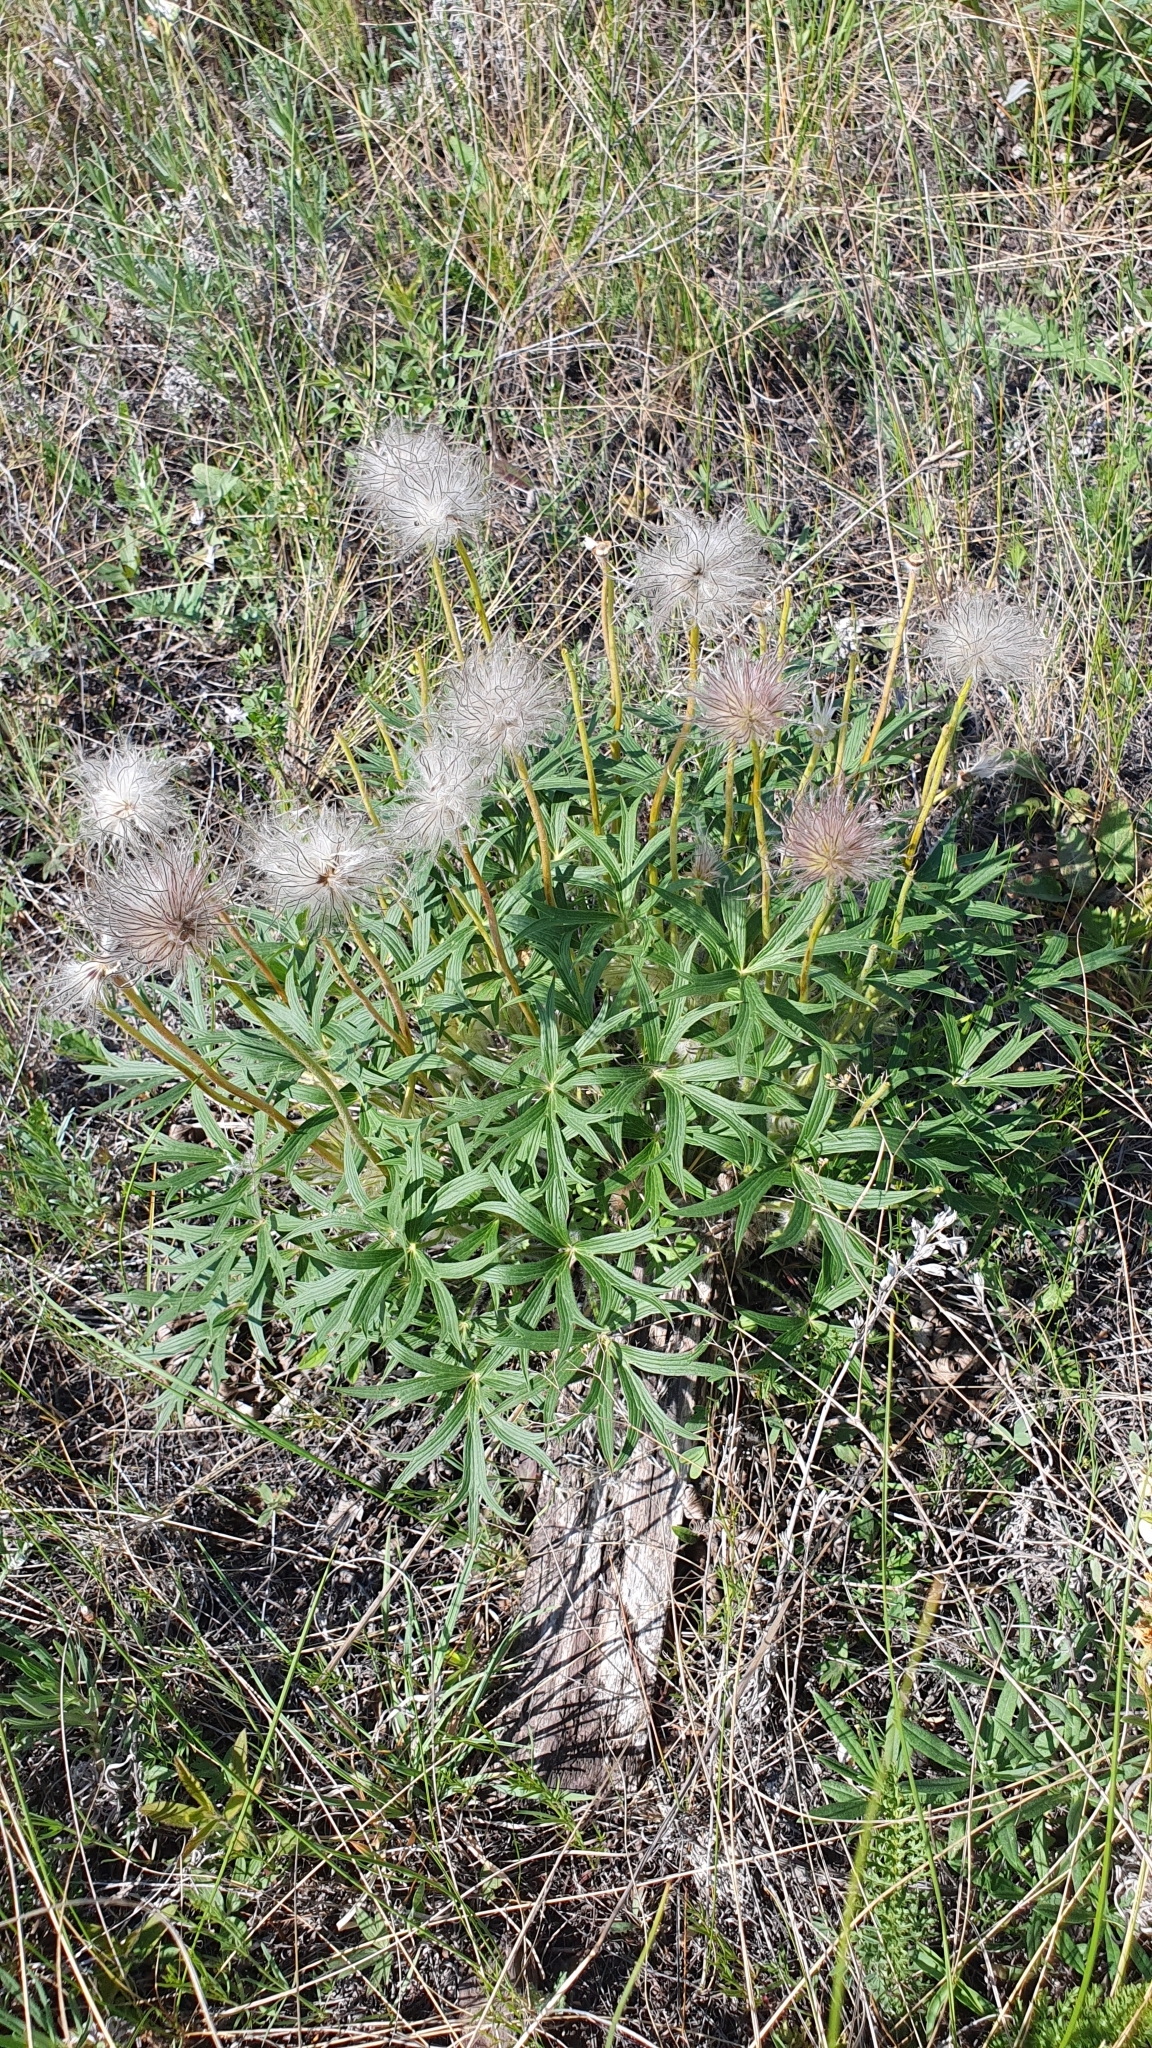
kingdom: Plantae
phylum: Tracheophyta
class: Magnoliopsida
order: Ranunculales
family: Ranunculaceae
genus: Pulsatilla
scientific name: Pulsatilla patens
